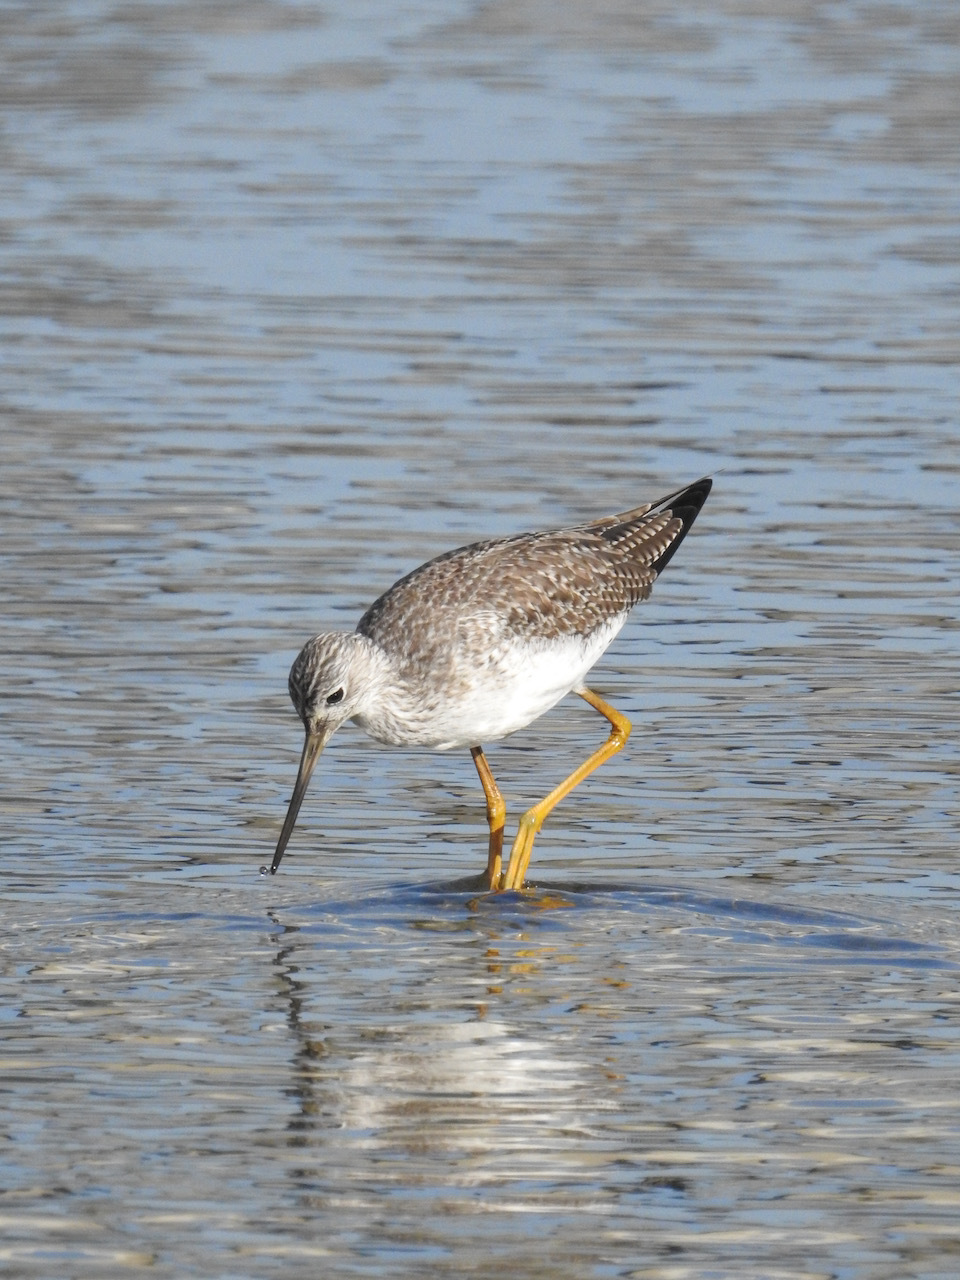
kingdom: Animalia
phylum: Chordata
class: Aves
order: Charadriiformes
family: Scolopacidae
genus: Tringa
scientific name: Tringa melanoleuca
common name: Greater yellowlegs
